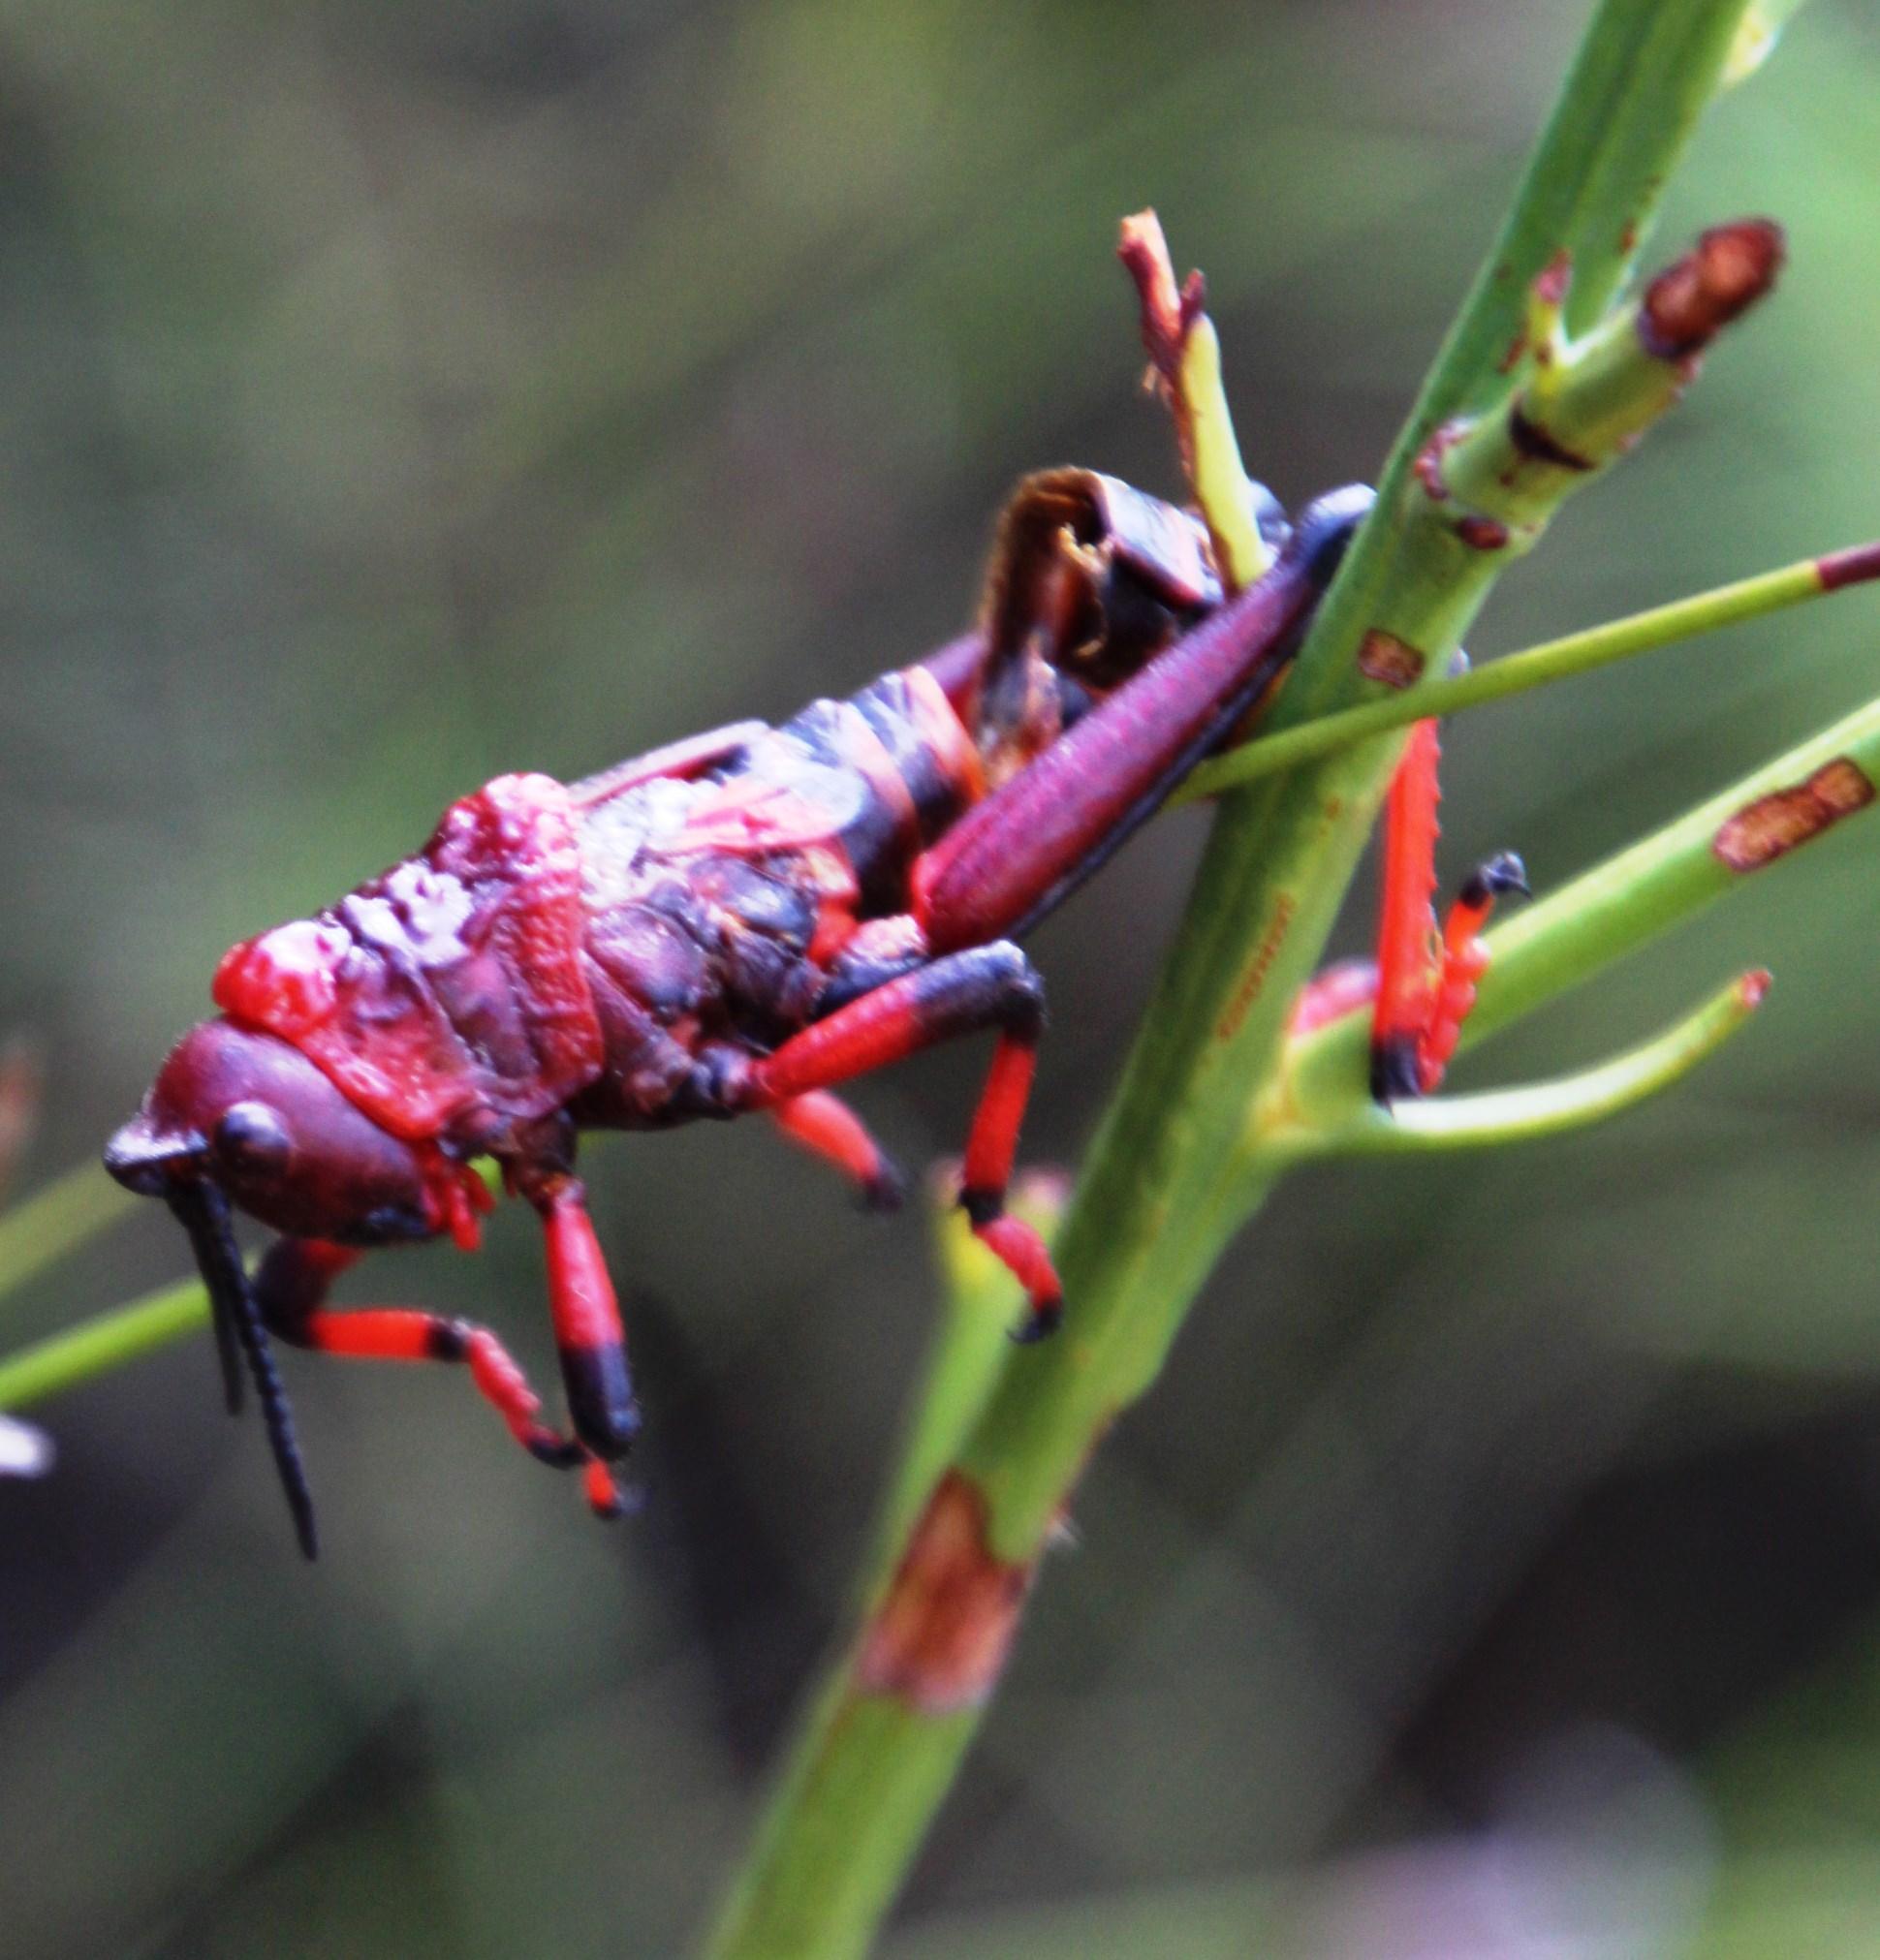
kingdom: Animalia
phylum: Arthropoda
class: Insecta
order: Orthoptera
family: Pyrgomorphidae
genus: Dictyophorus
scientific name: Dictyophorus spumans
